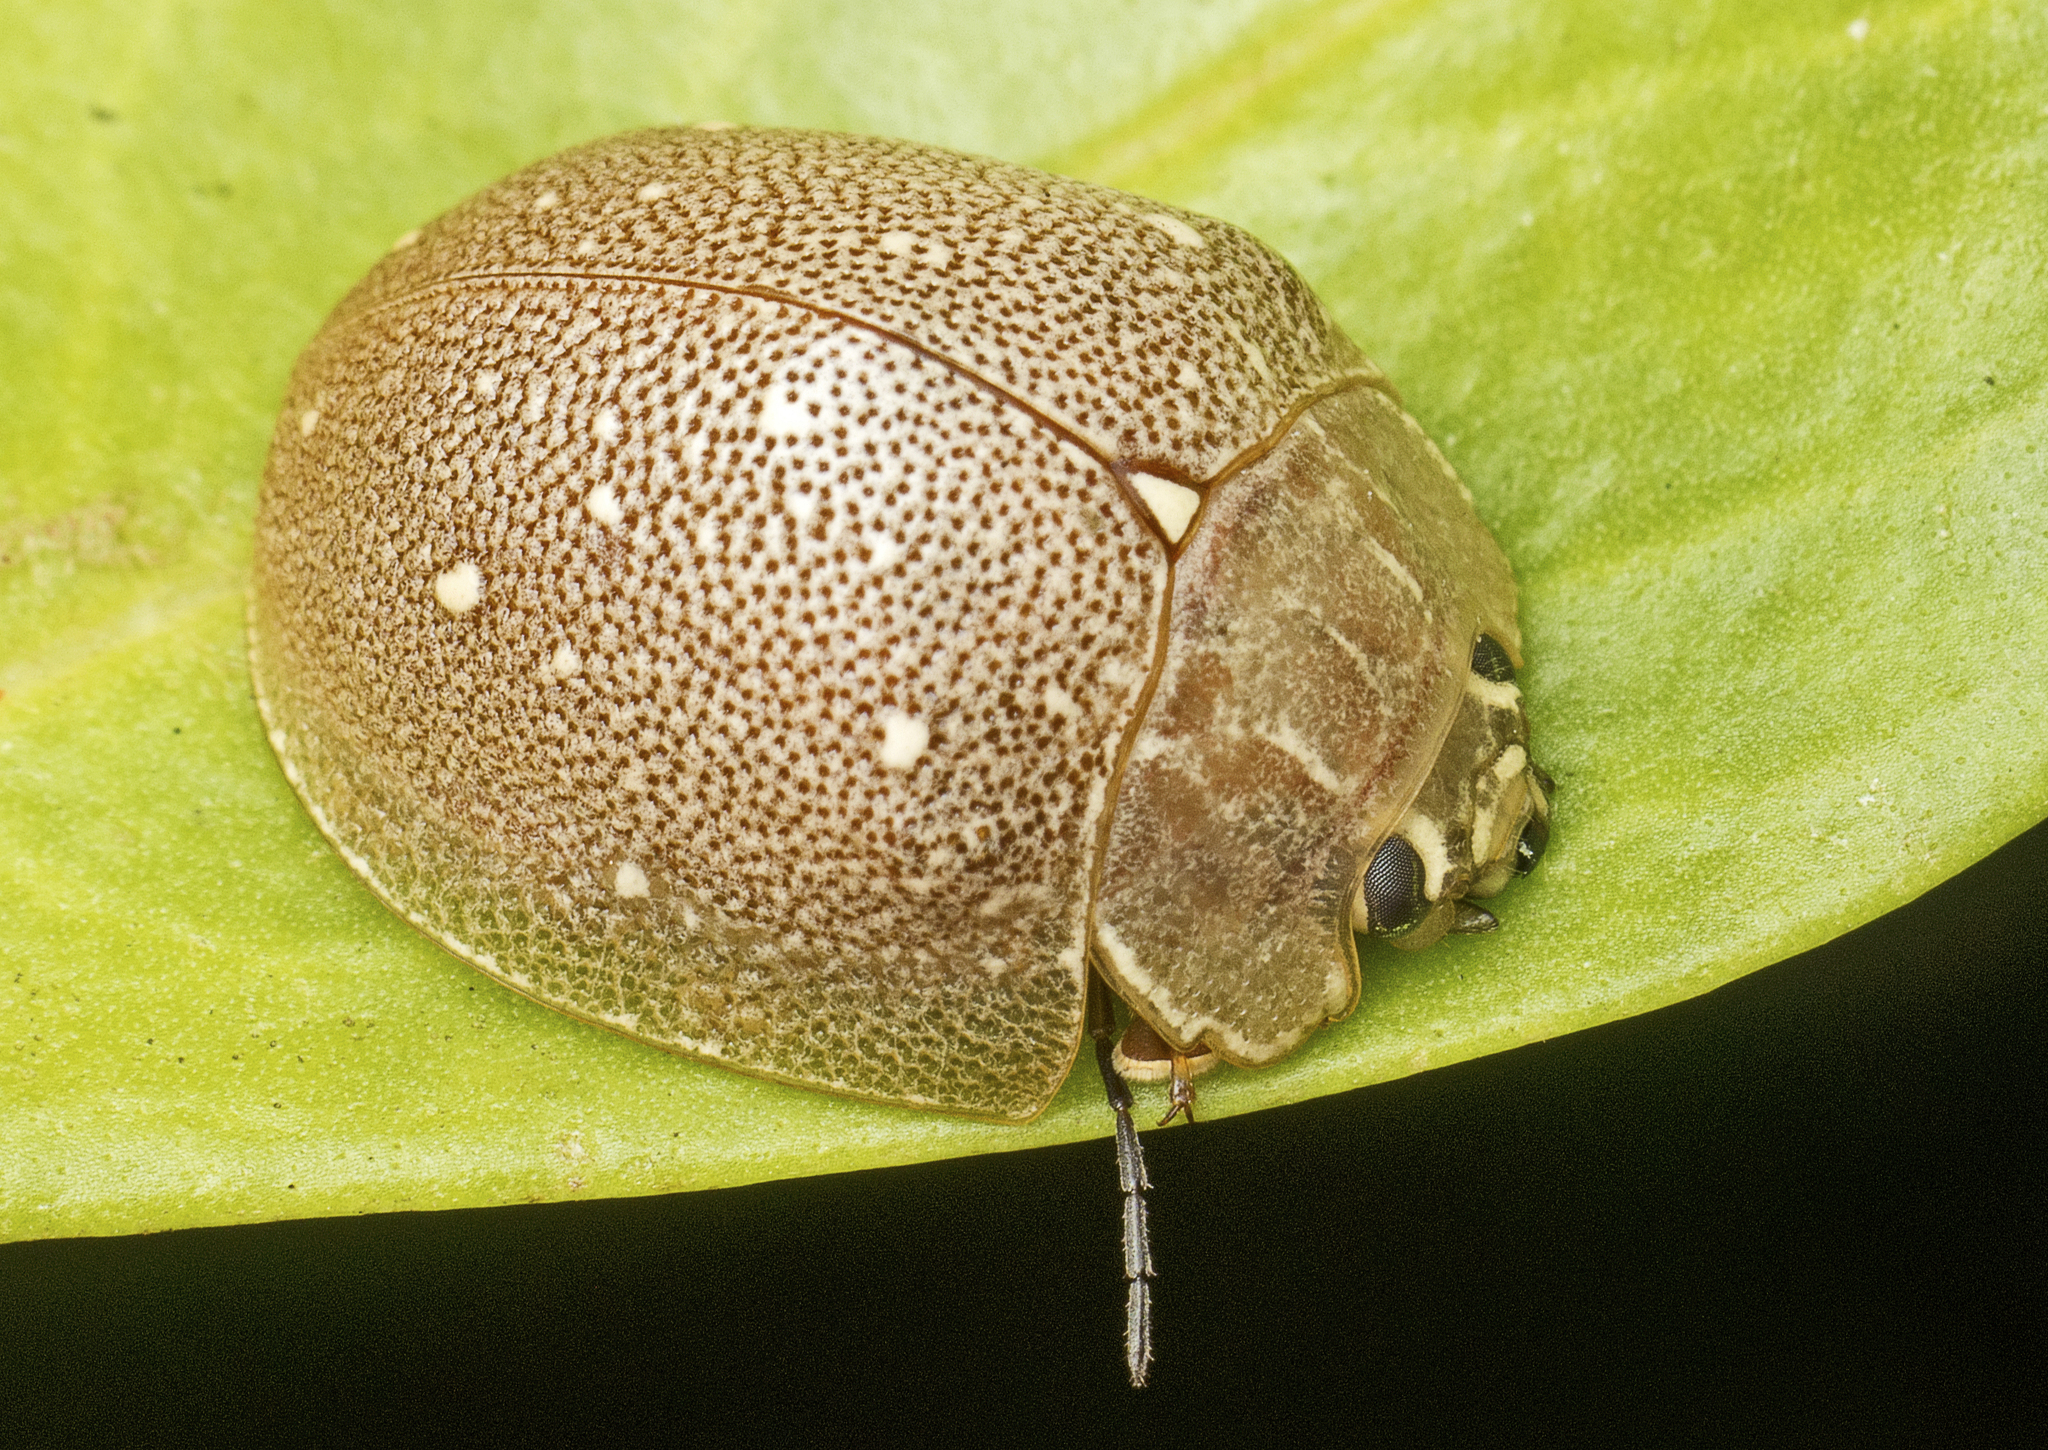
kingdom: Animalia
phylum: Arthropoda
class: Insecta
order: Coleoptera
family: Chrysomelidae
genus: Paropsis
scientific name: Paropsis
